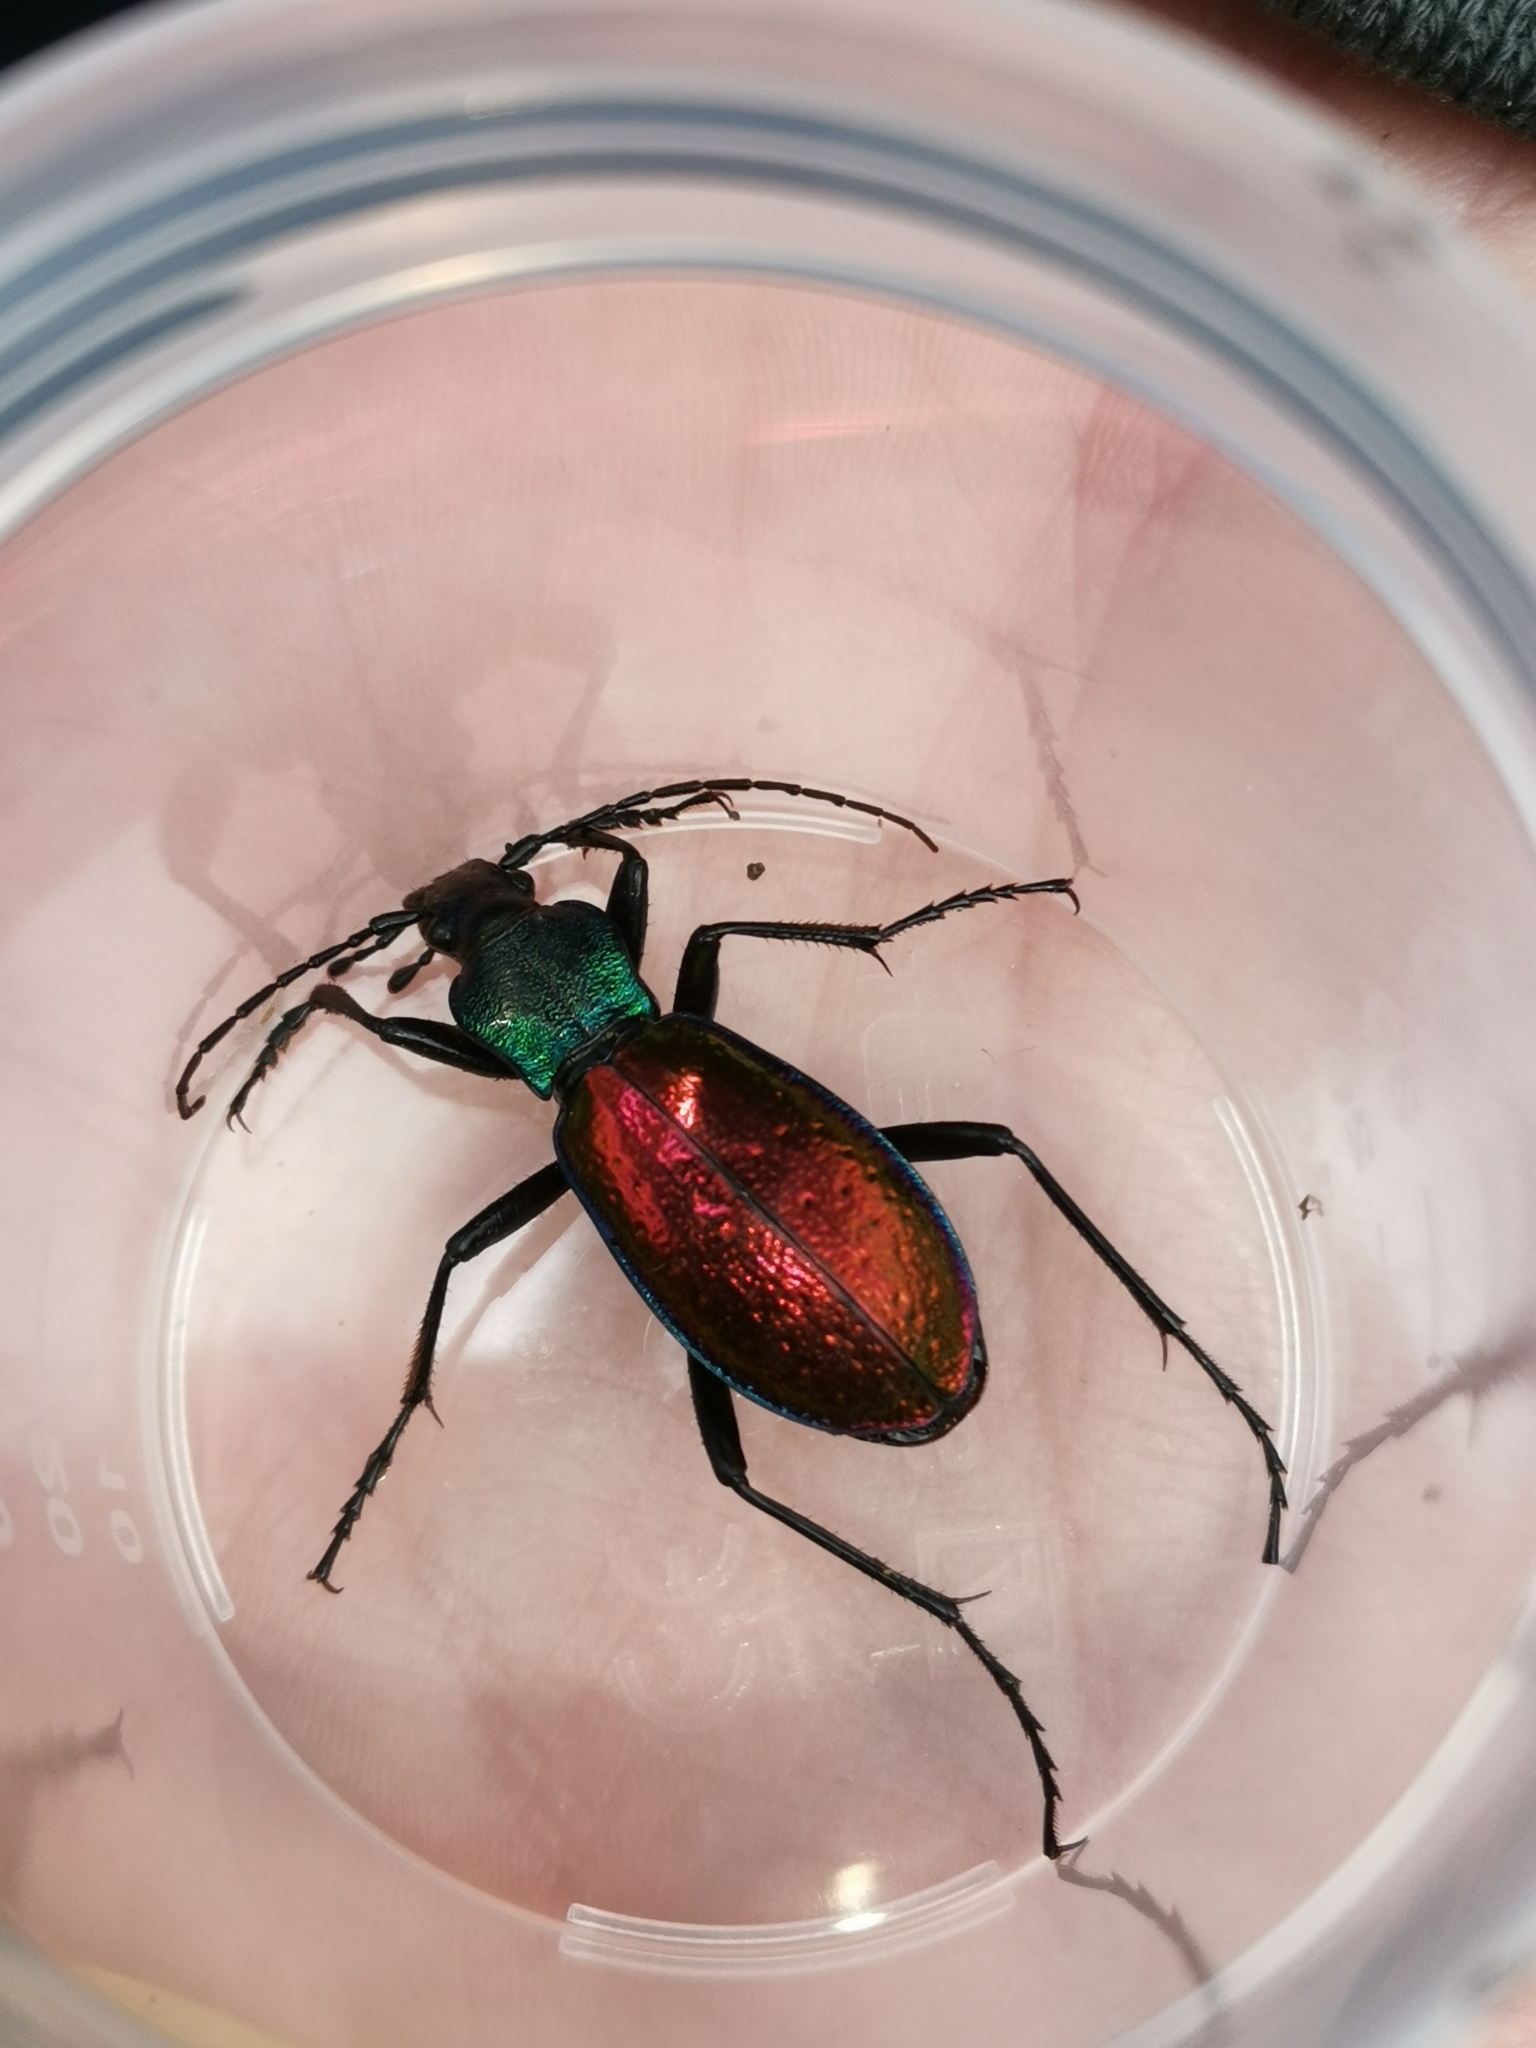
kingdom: Animalia
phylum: Arthropoda
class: Insecta
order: Coleoptera
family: Carabidae
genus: Carabus
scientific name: Carabus hispanus
